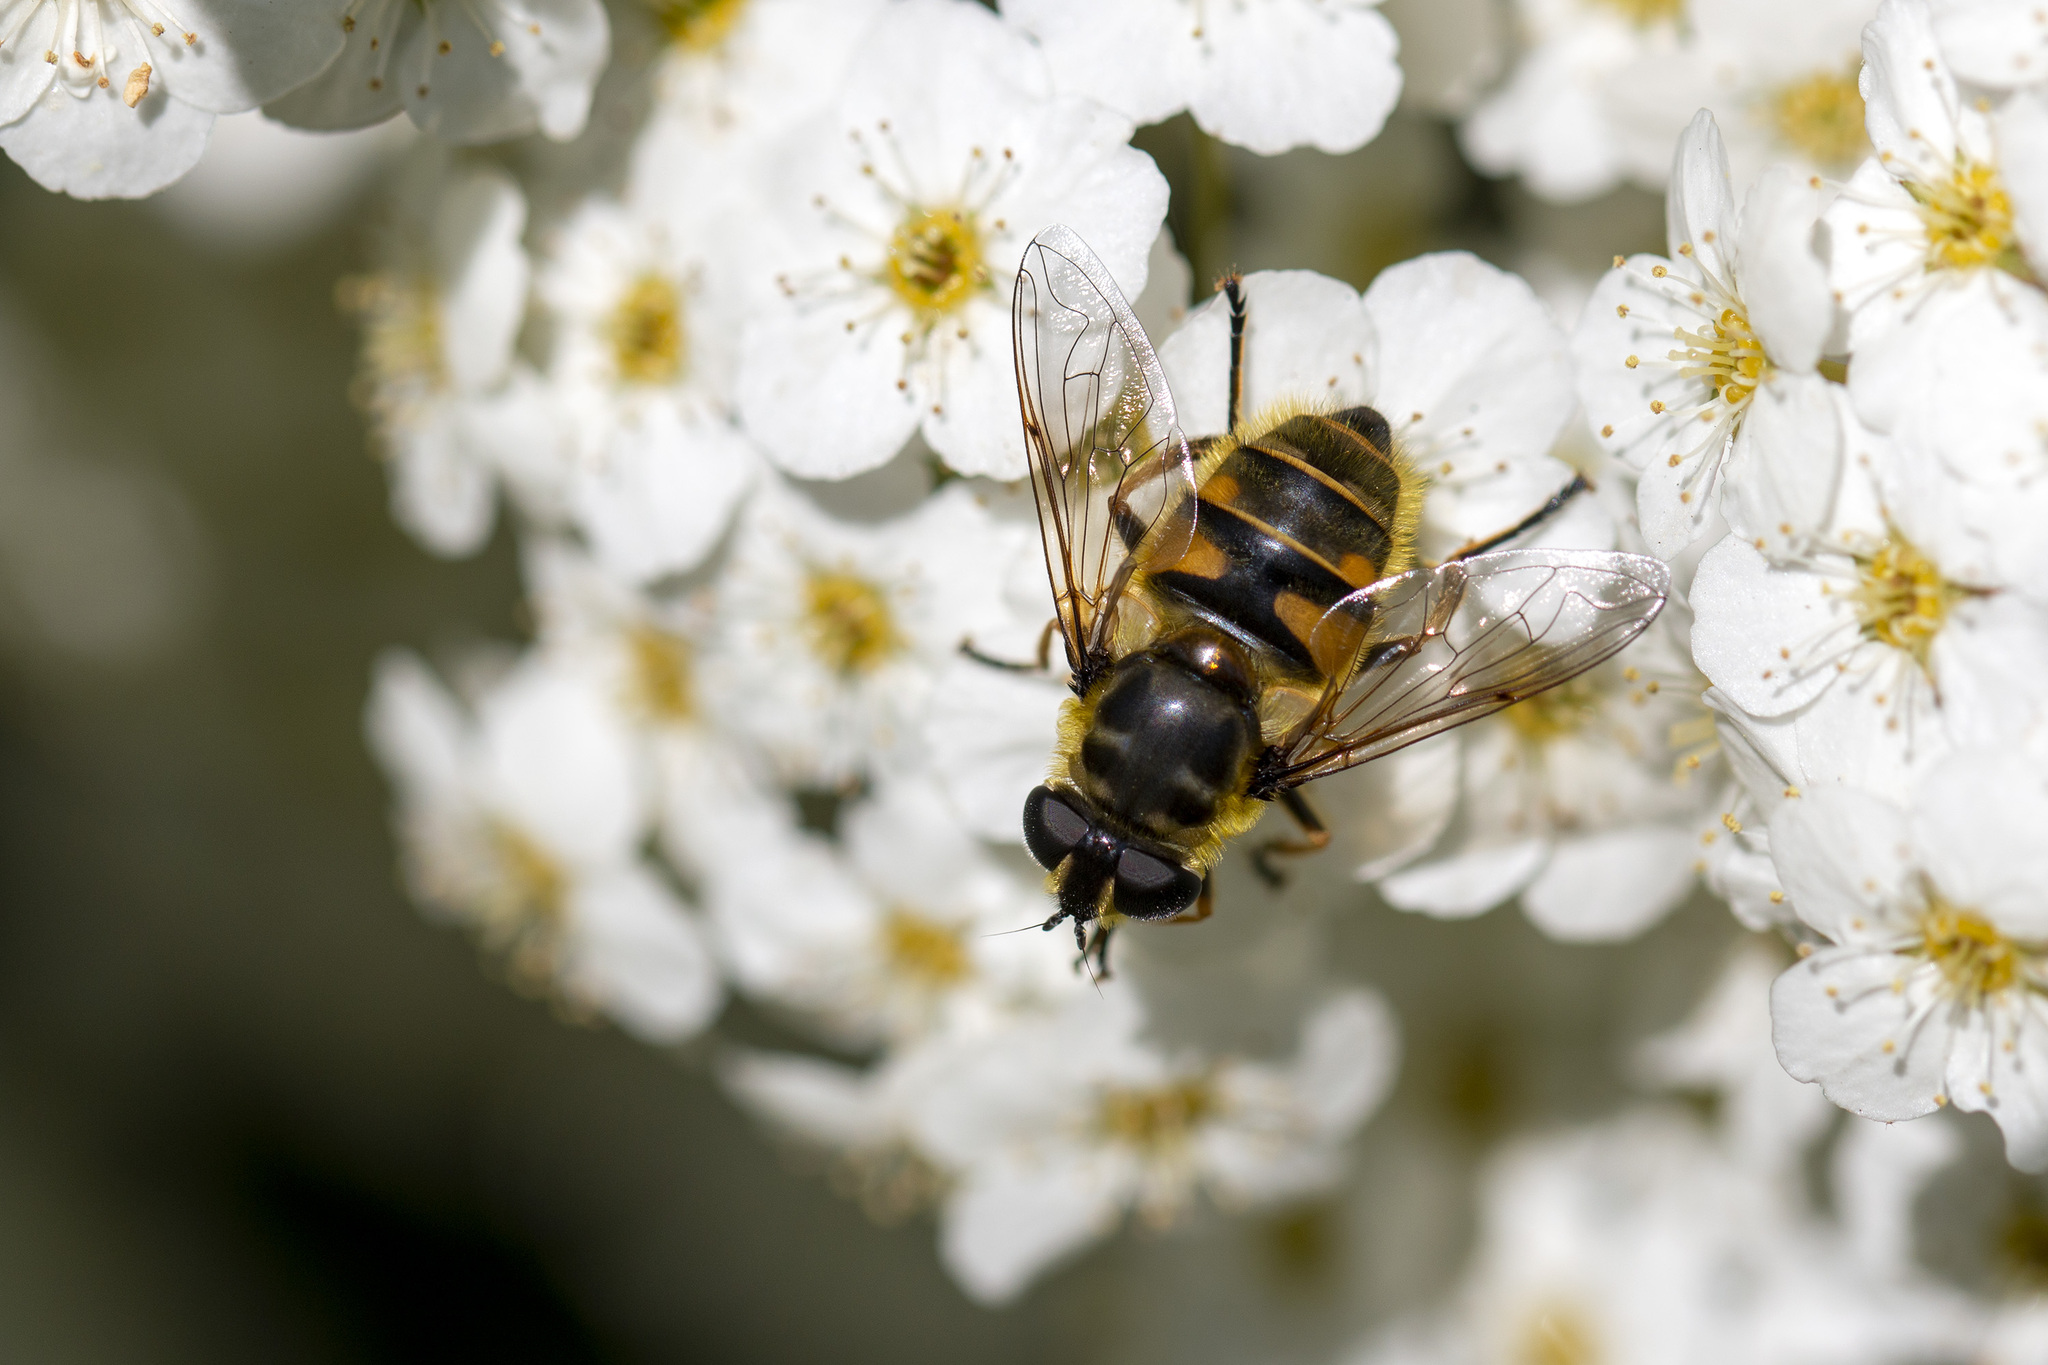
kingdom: Animalia
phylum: Arthropoda
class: Insecta
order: Diptera
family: Syrphidae
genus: Myathropa
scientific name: Myathropa florea
